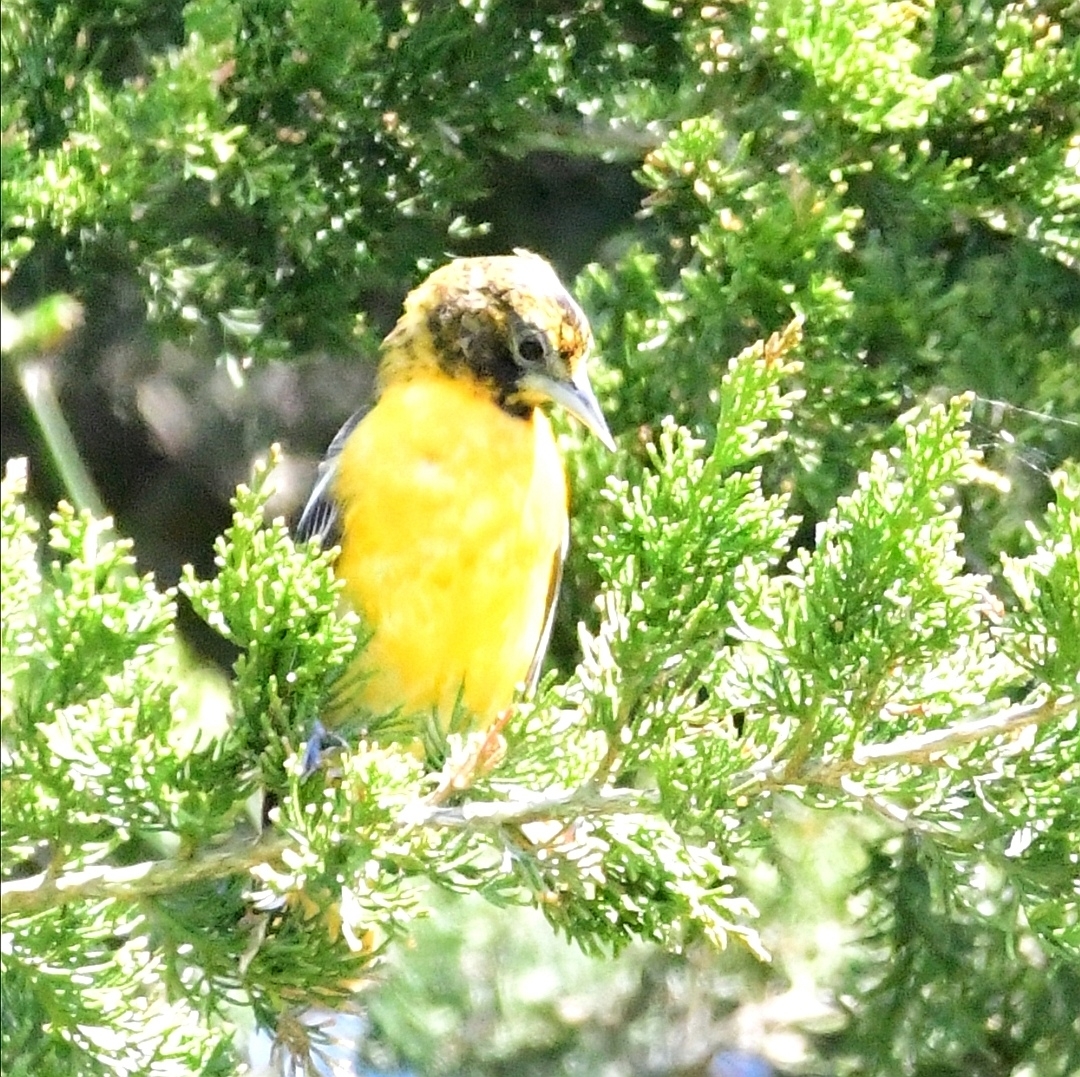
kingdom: Animalia
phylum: Chordata
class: Aves
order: Passeriformes
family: Icteridae
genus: Icterus
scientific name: Icterus galbula
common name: Baltimore oriole
